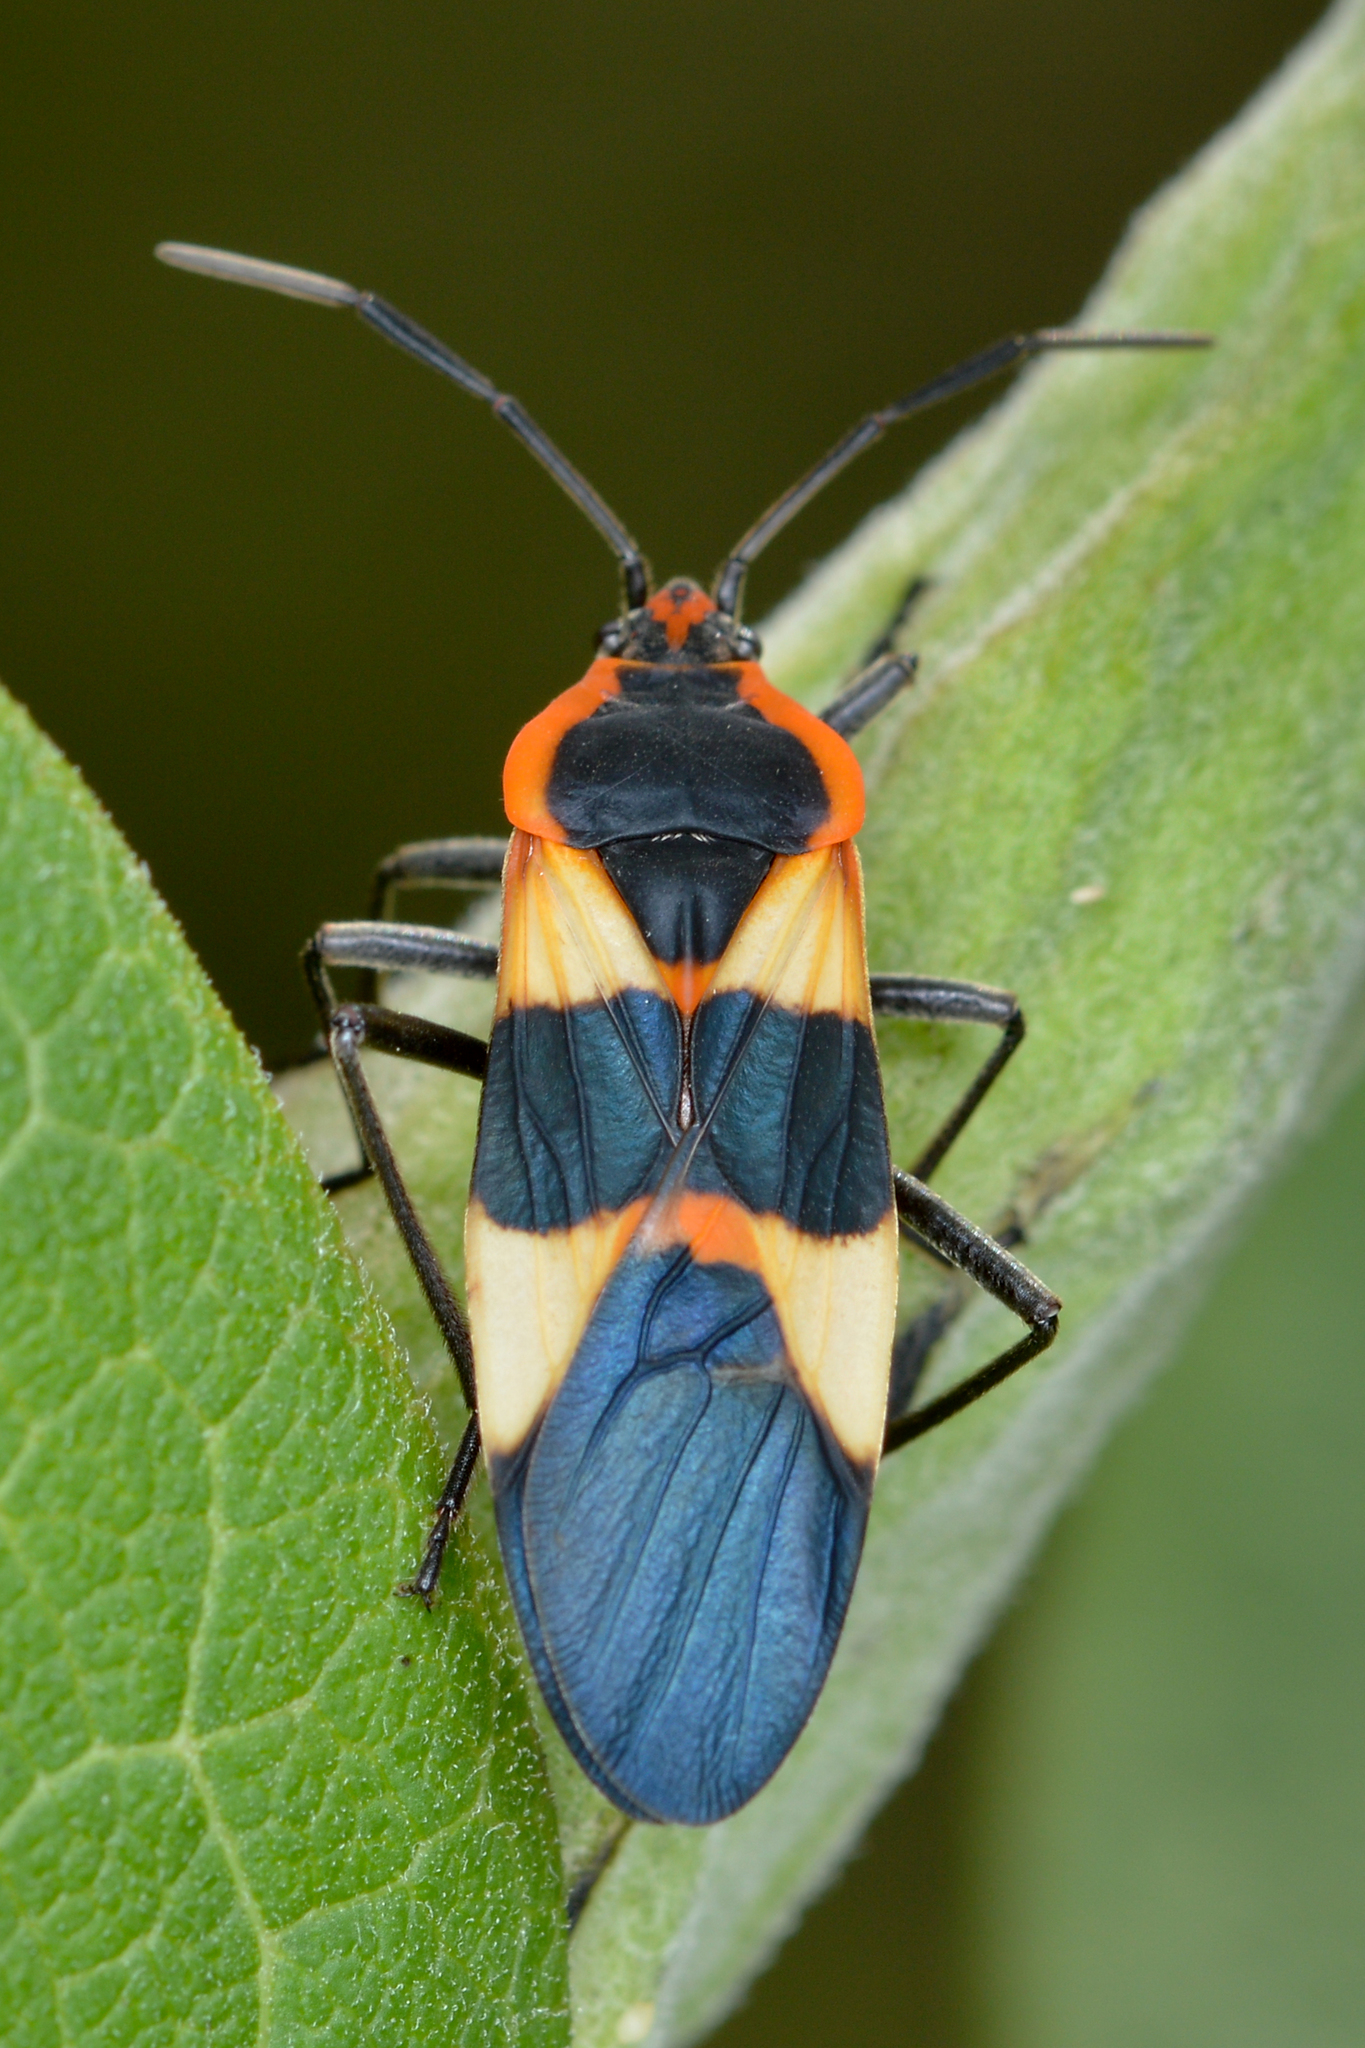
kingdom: Animalia
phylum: Arthropoda
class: Insecta
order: Hemiptera
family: Lygaeidae
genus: Oncopeltus
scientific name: Oncopeltus fasciatus
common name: Large milkweed bug
